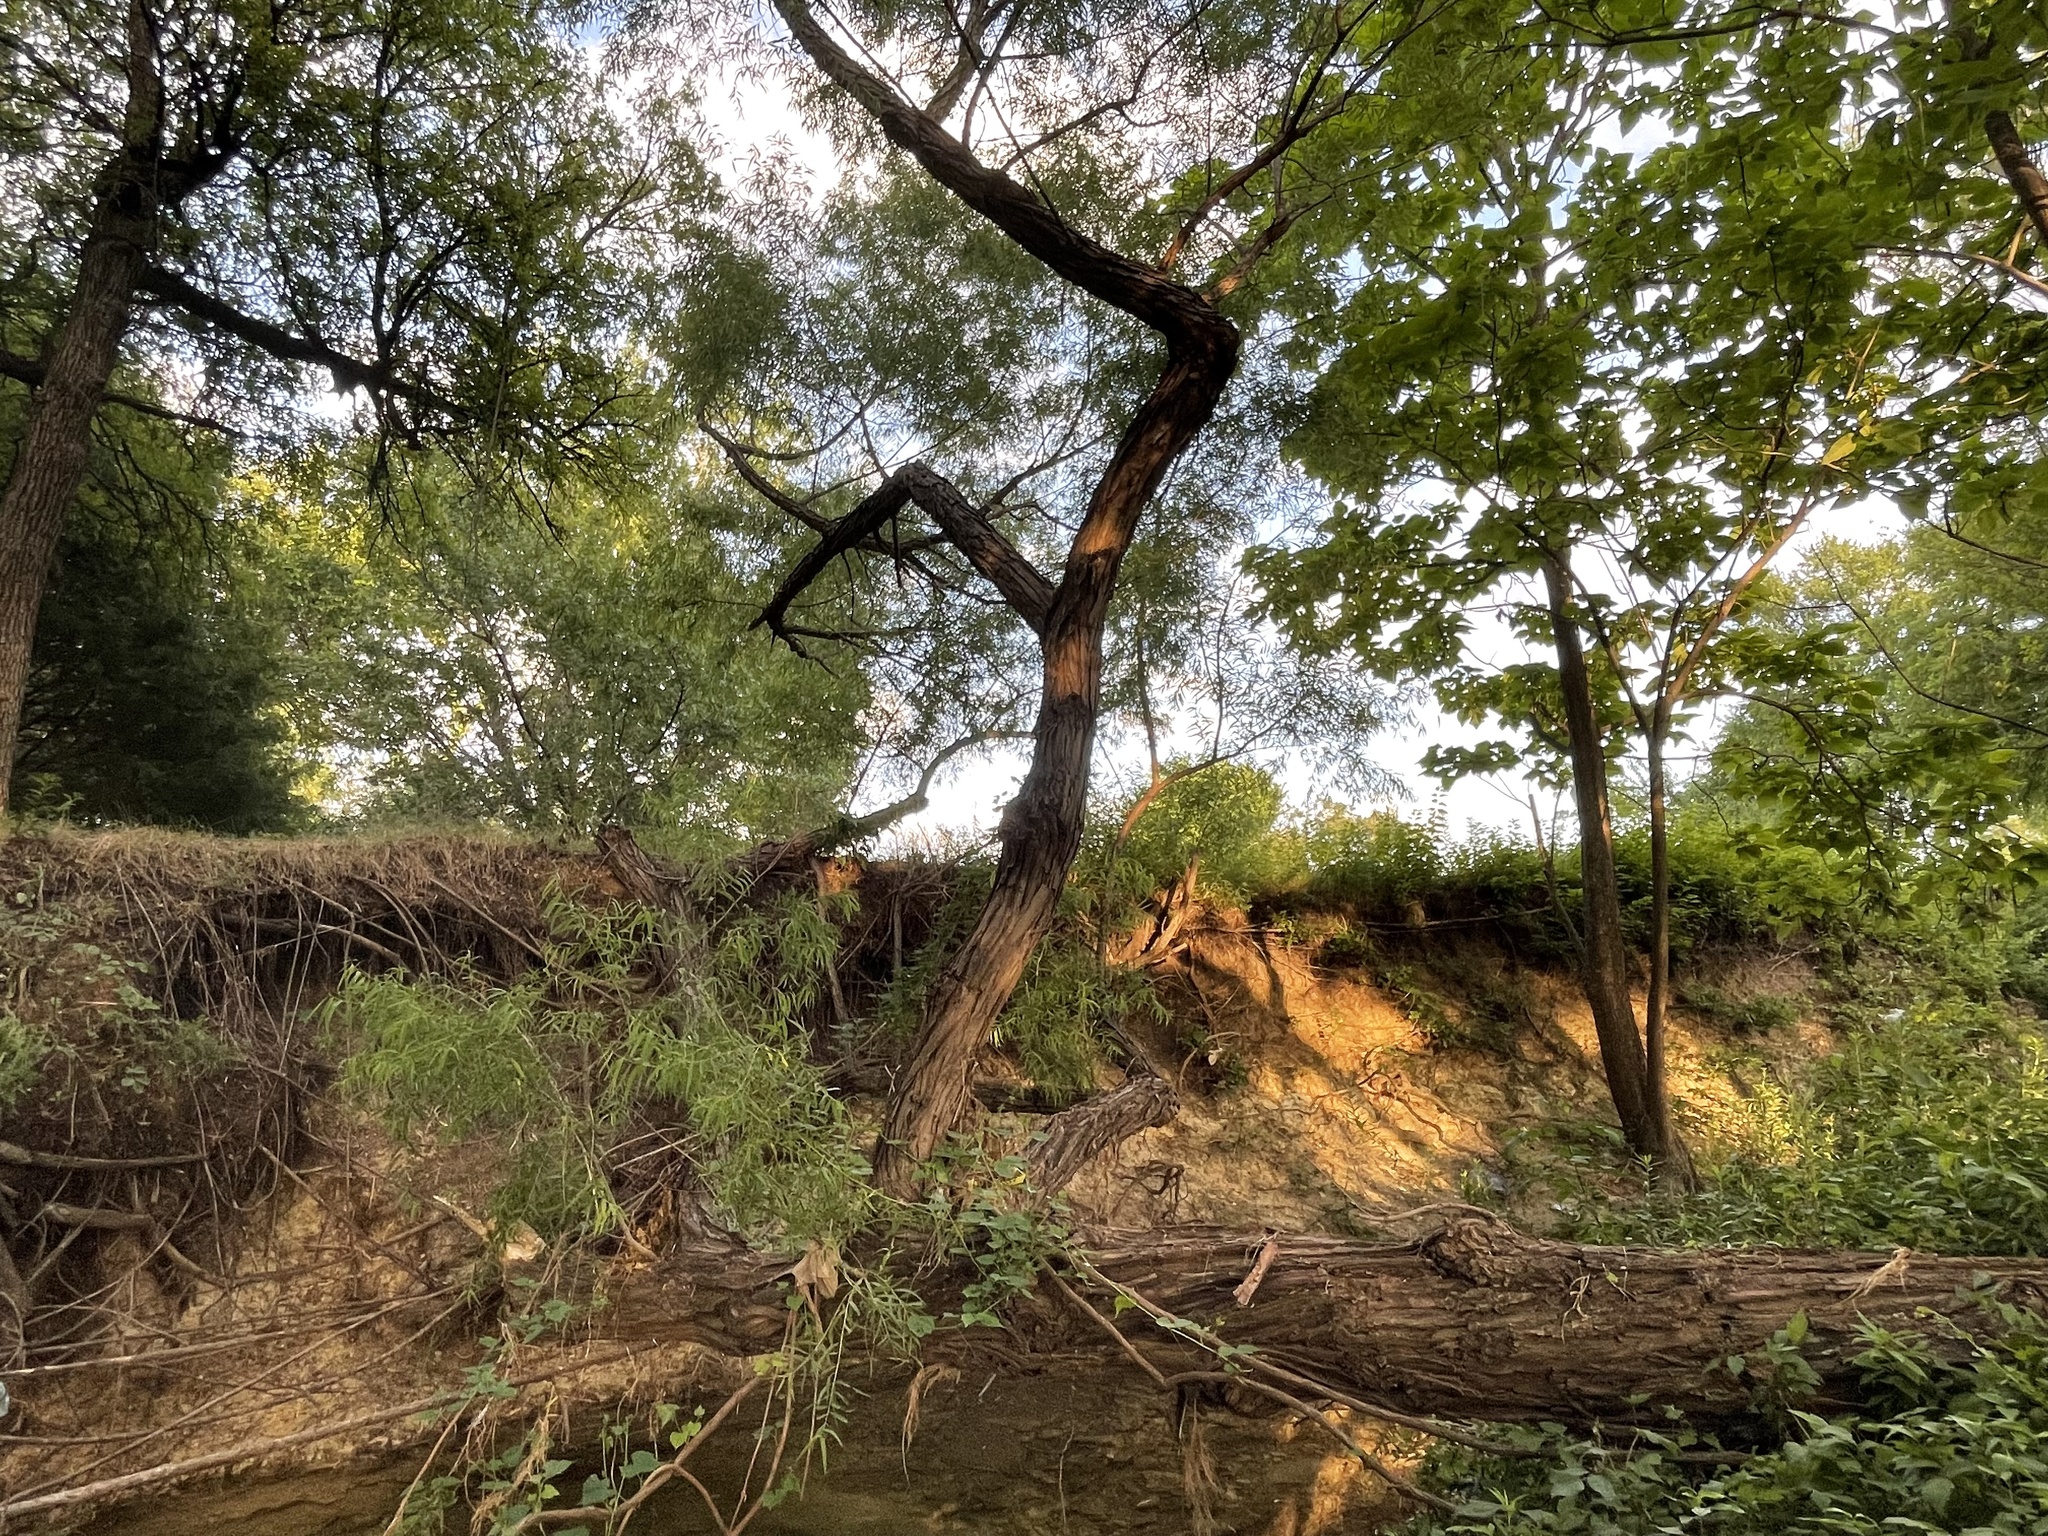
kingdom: Plantae
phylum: Tracheophyta
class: Magnoliopsida
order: Malpighiales
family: Salicaceae
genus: Salix
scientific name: Salix nigra
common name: Black willow
